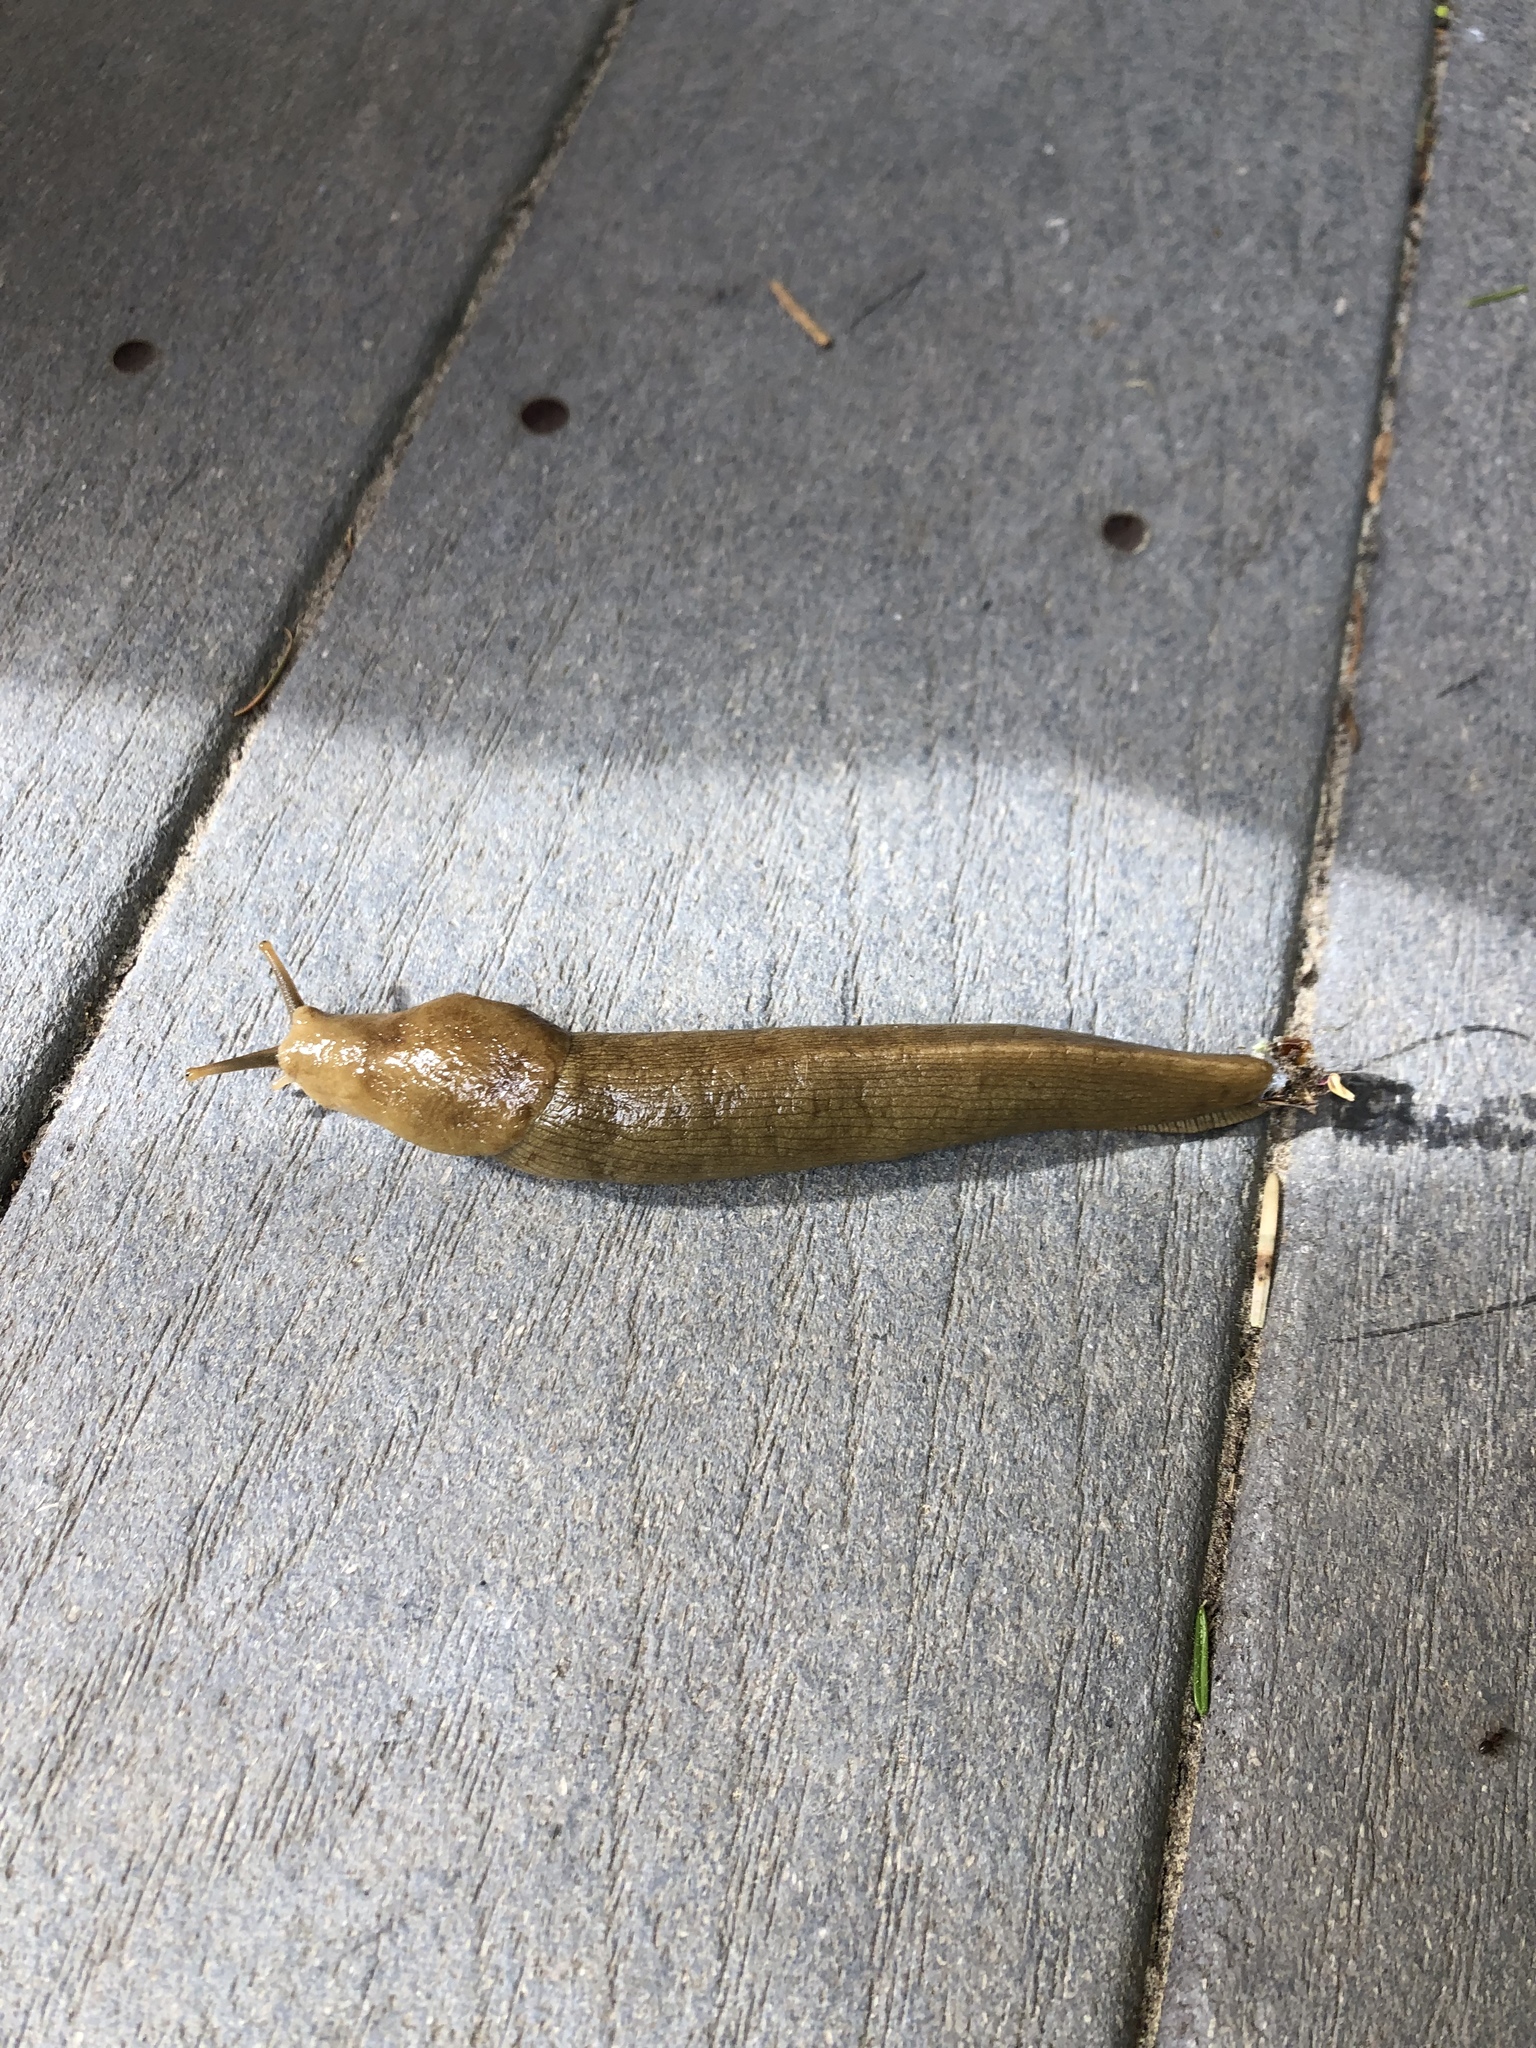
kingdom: Animalia
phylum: Mollusca
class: Gastropoda
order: Stylommatophora
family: Ariolimacidae
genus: Ariolimax
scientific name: Ariolimax columbianus
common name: Pacific banana slug
